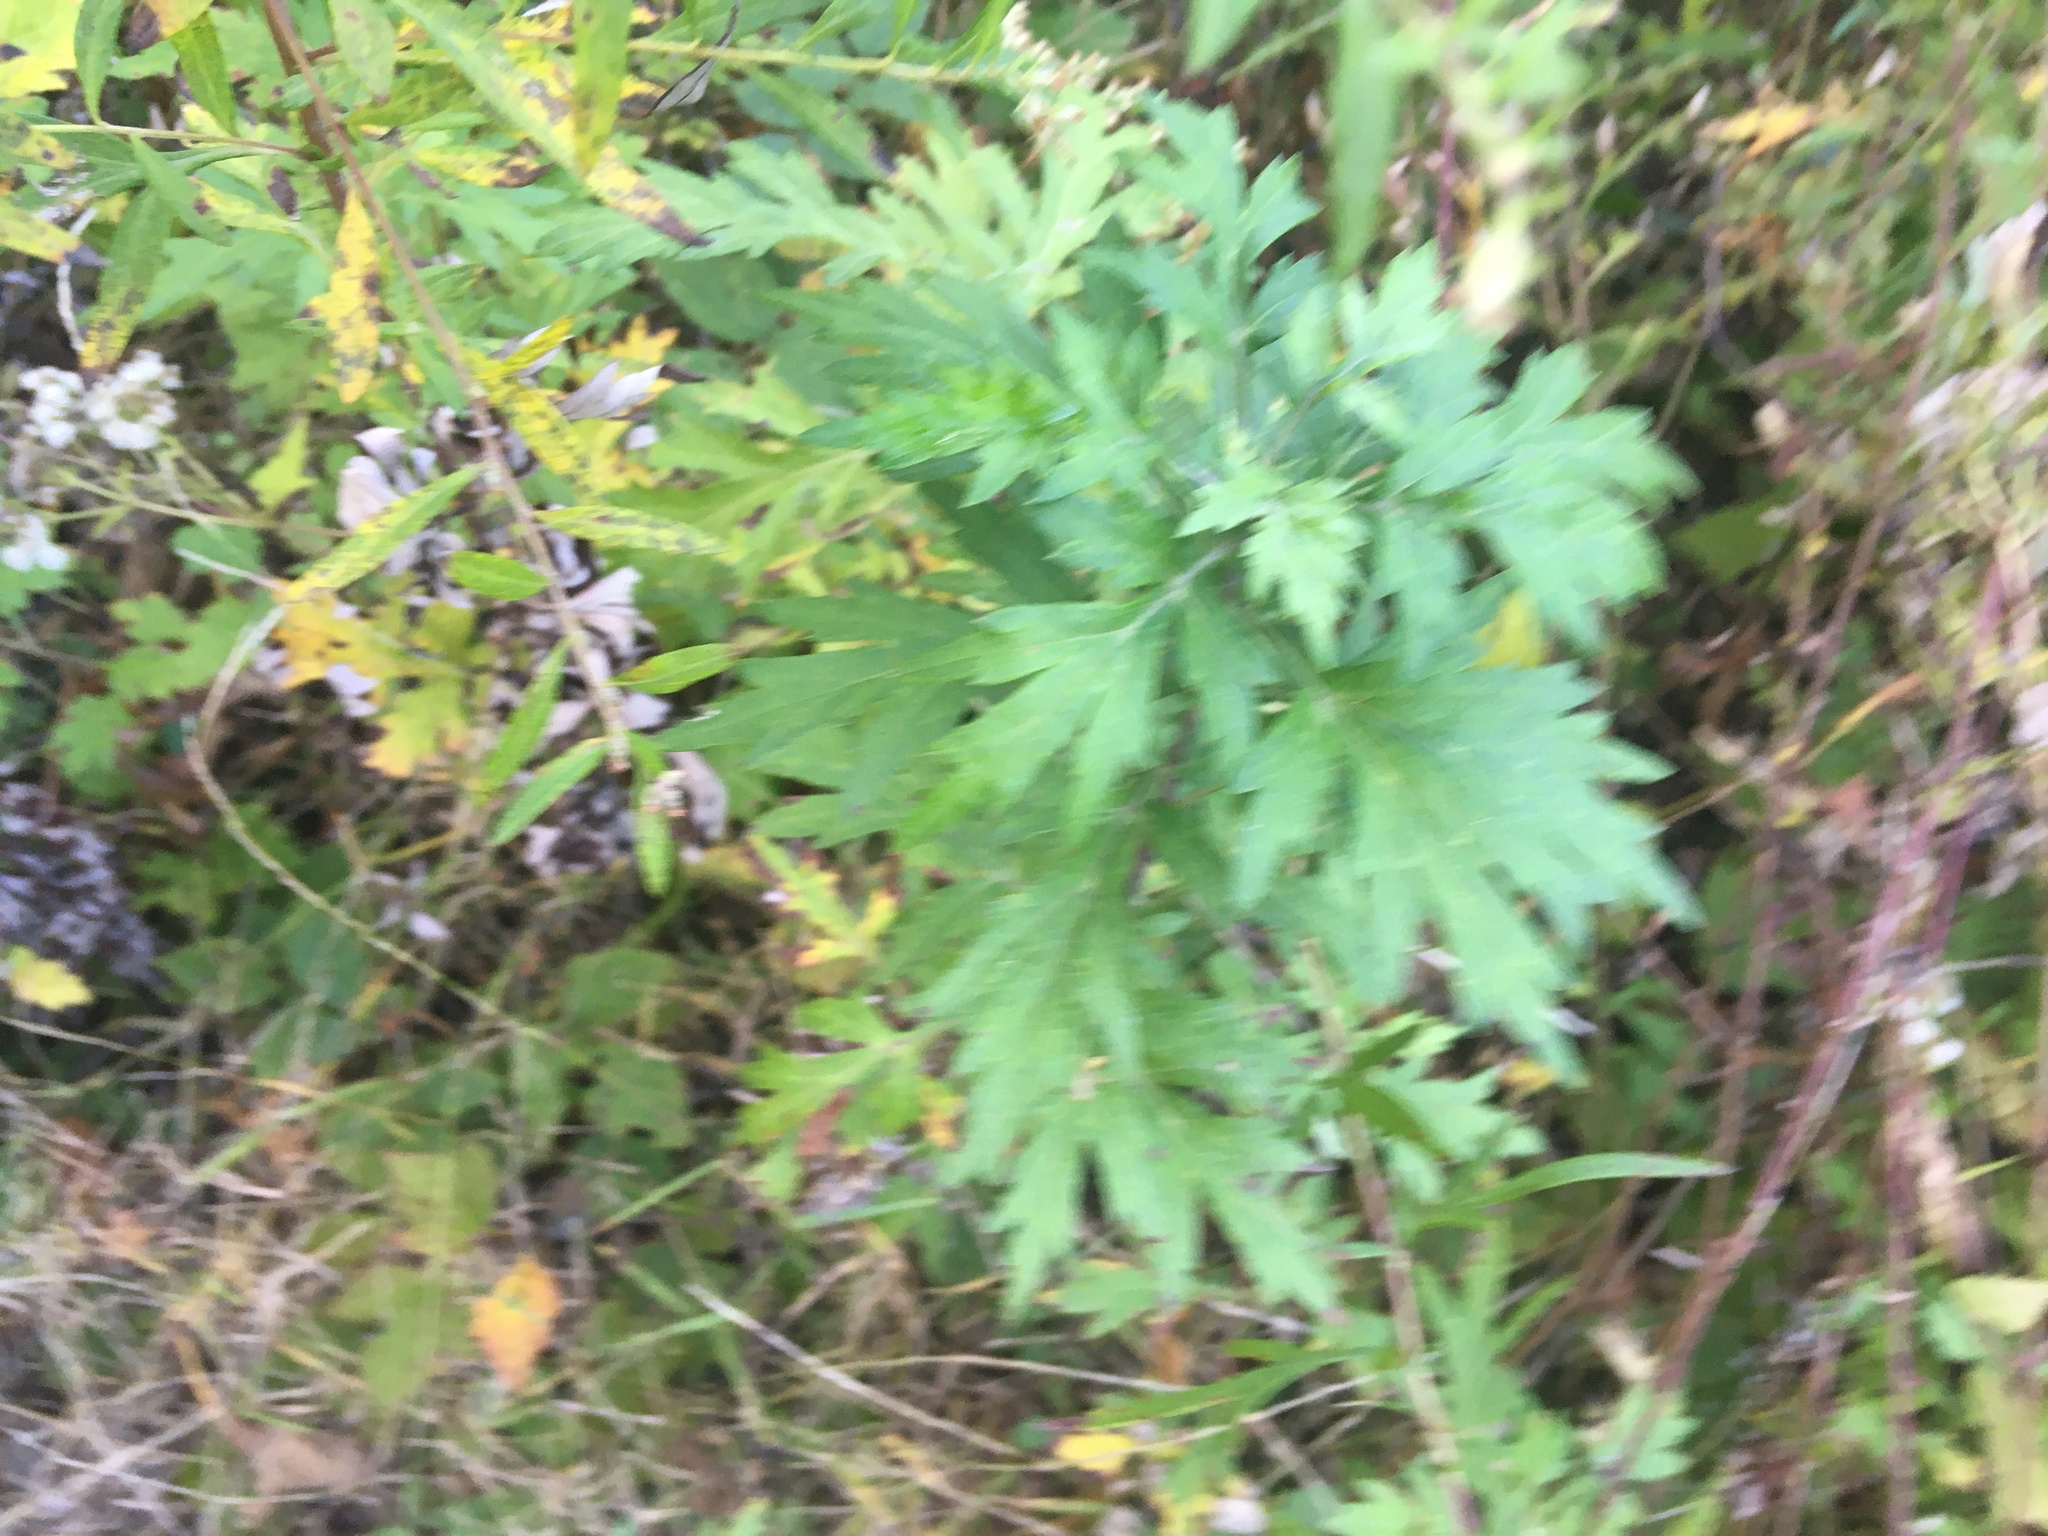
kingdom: Plantae
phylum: Tracheophyta
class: Magnoliopsida
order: Asterales
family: Asteraceae
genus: Artemisia
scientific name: Artemisia vulgaris
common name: Mugwort
